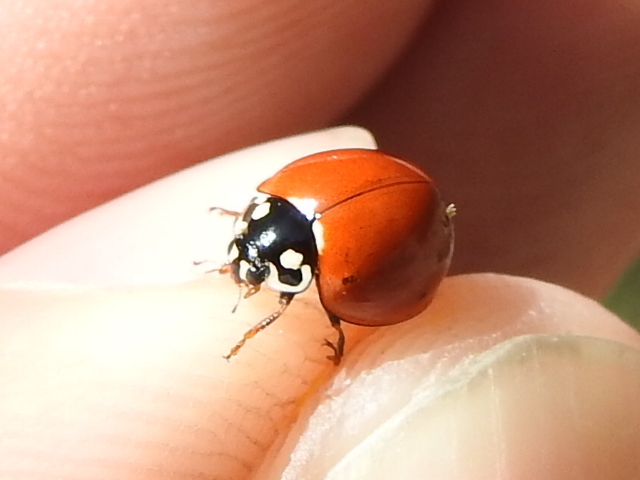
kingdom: Animalia
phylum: Arthropoda
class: Insecta
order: Coleoptera
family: Coccinellidae
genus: Cycloneda
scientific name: Cycloneda sanguinea
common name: Ladybird beetle
